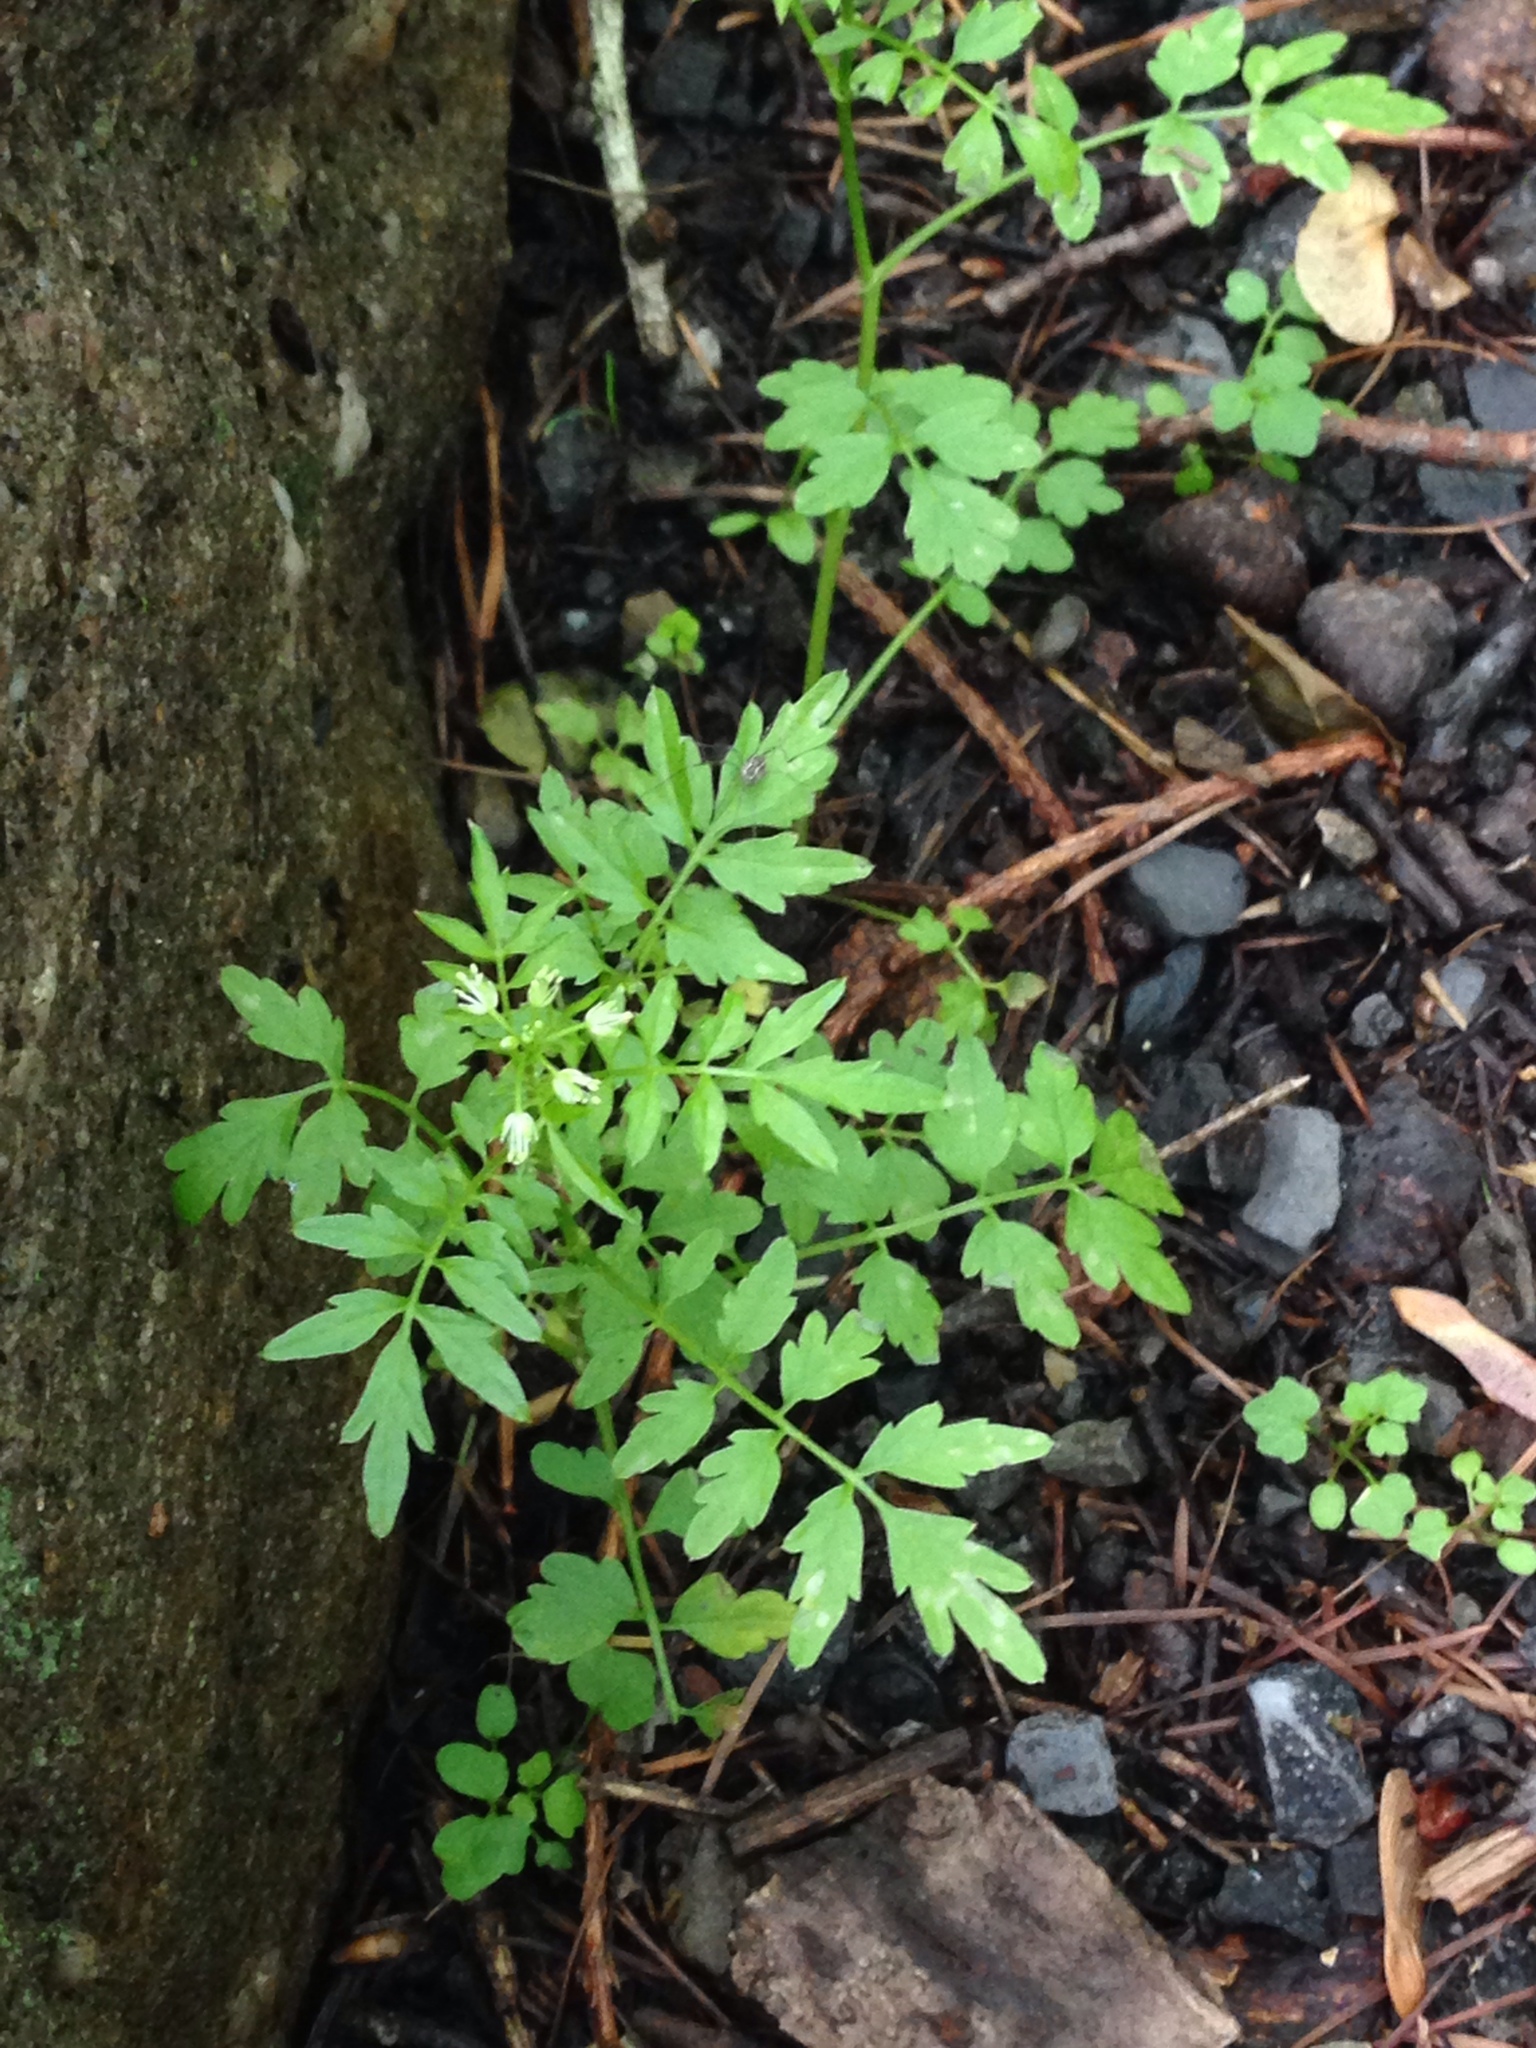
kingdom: Plantae
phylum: Tracheophyta
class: Magnoliopsida
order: Brassicales
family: Brassicaceae
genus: Cardamine
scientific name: Cardamine impatiens
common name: Narrow-leaved bitter-cress
